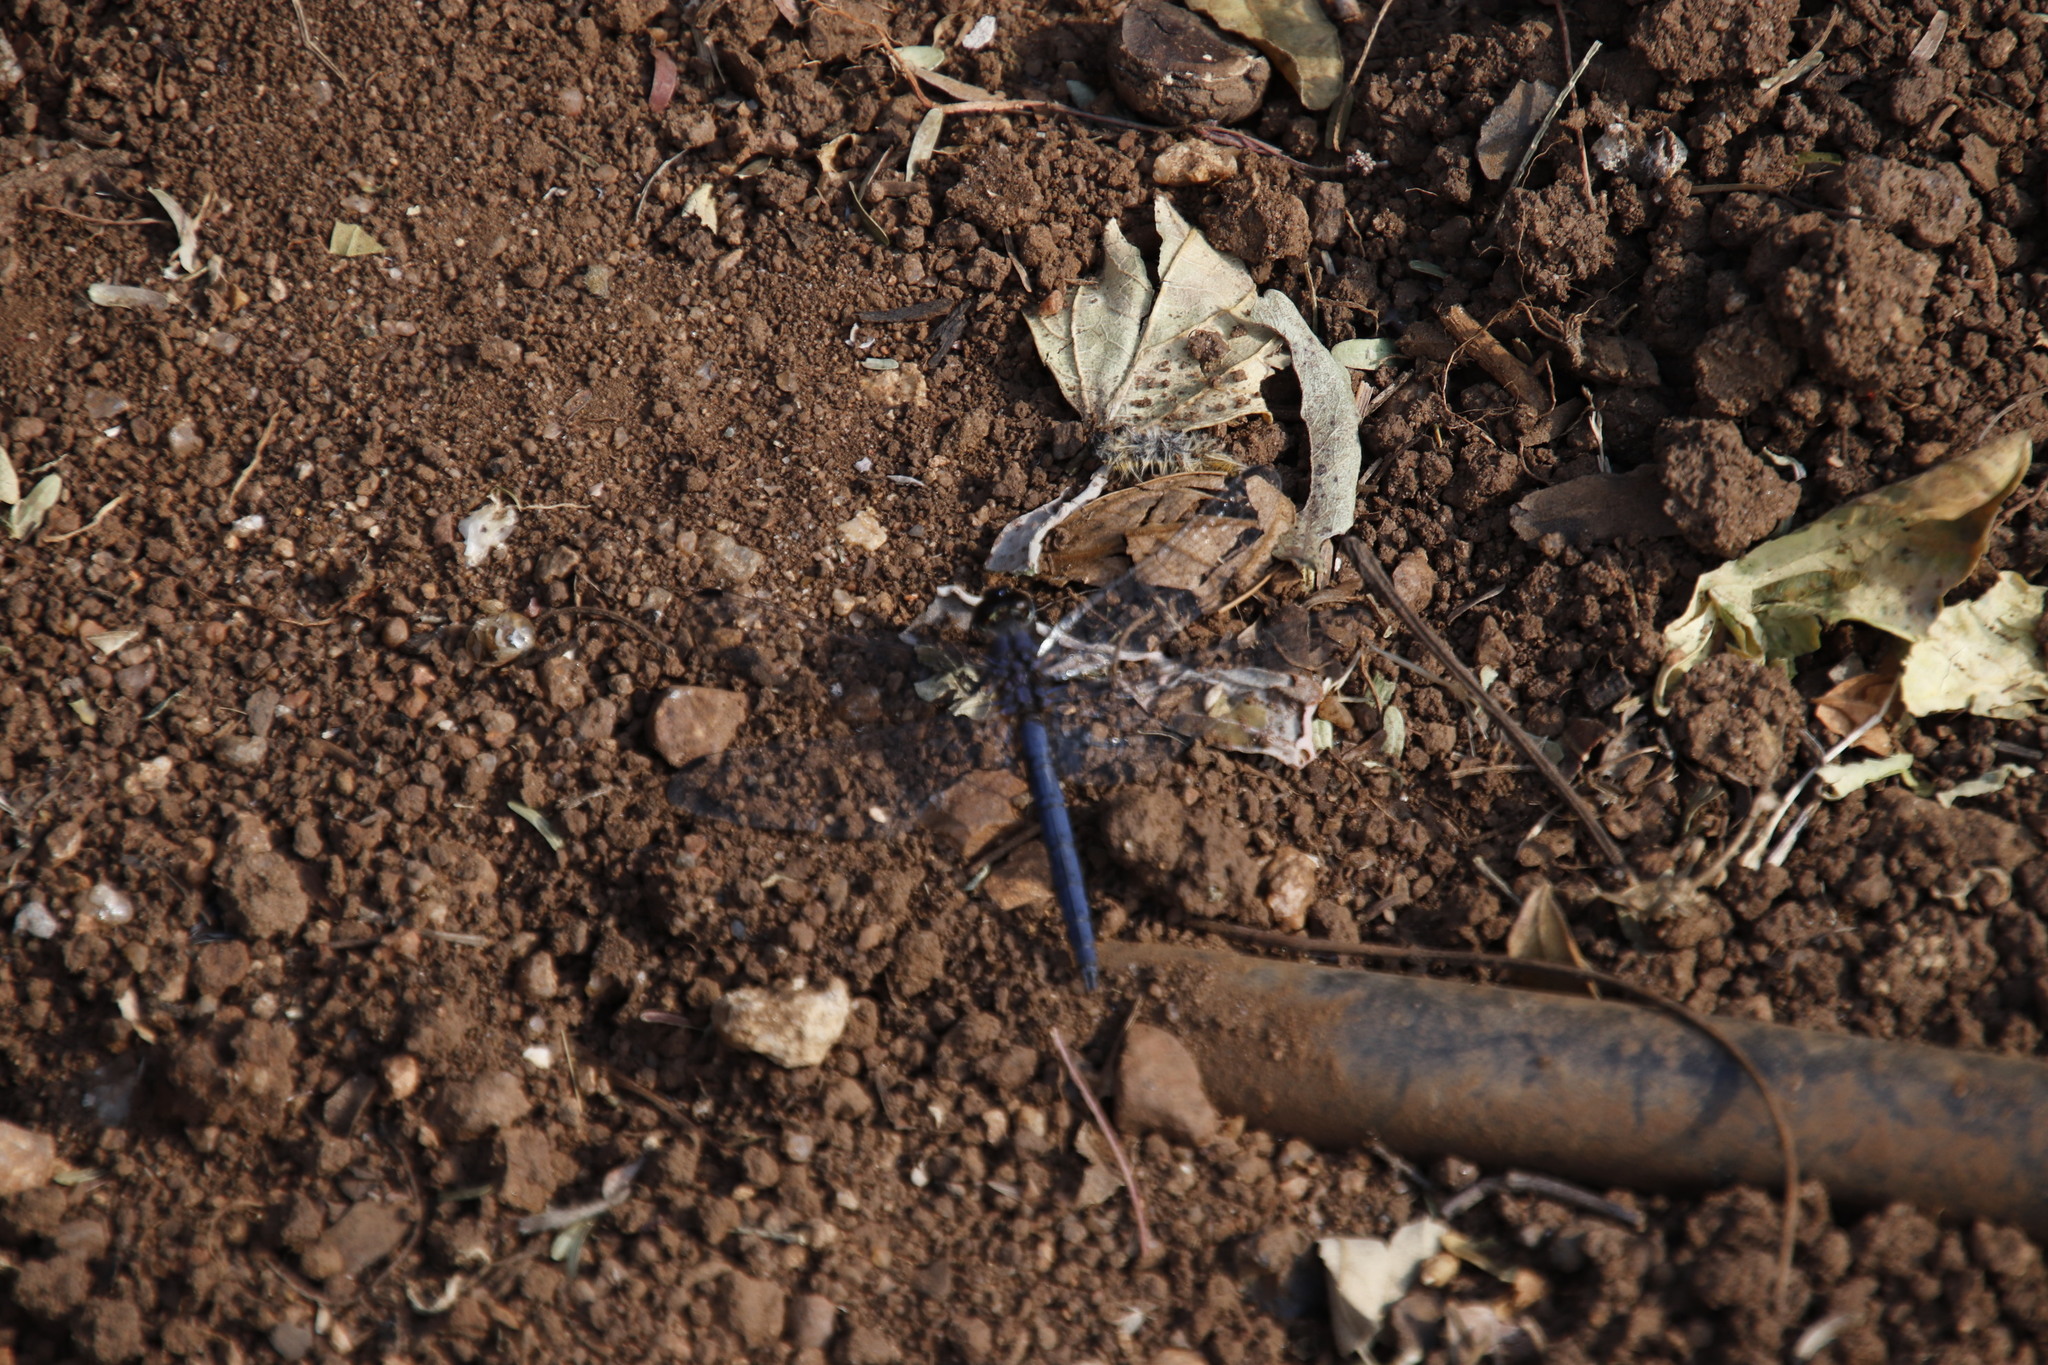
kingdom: Animalia
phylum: Arthropoda
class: Insecta
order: Odonata
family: Libellulidae
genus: Trithemis
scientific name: Trithemis furva
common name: Dark dropwing
